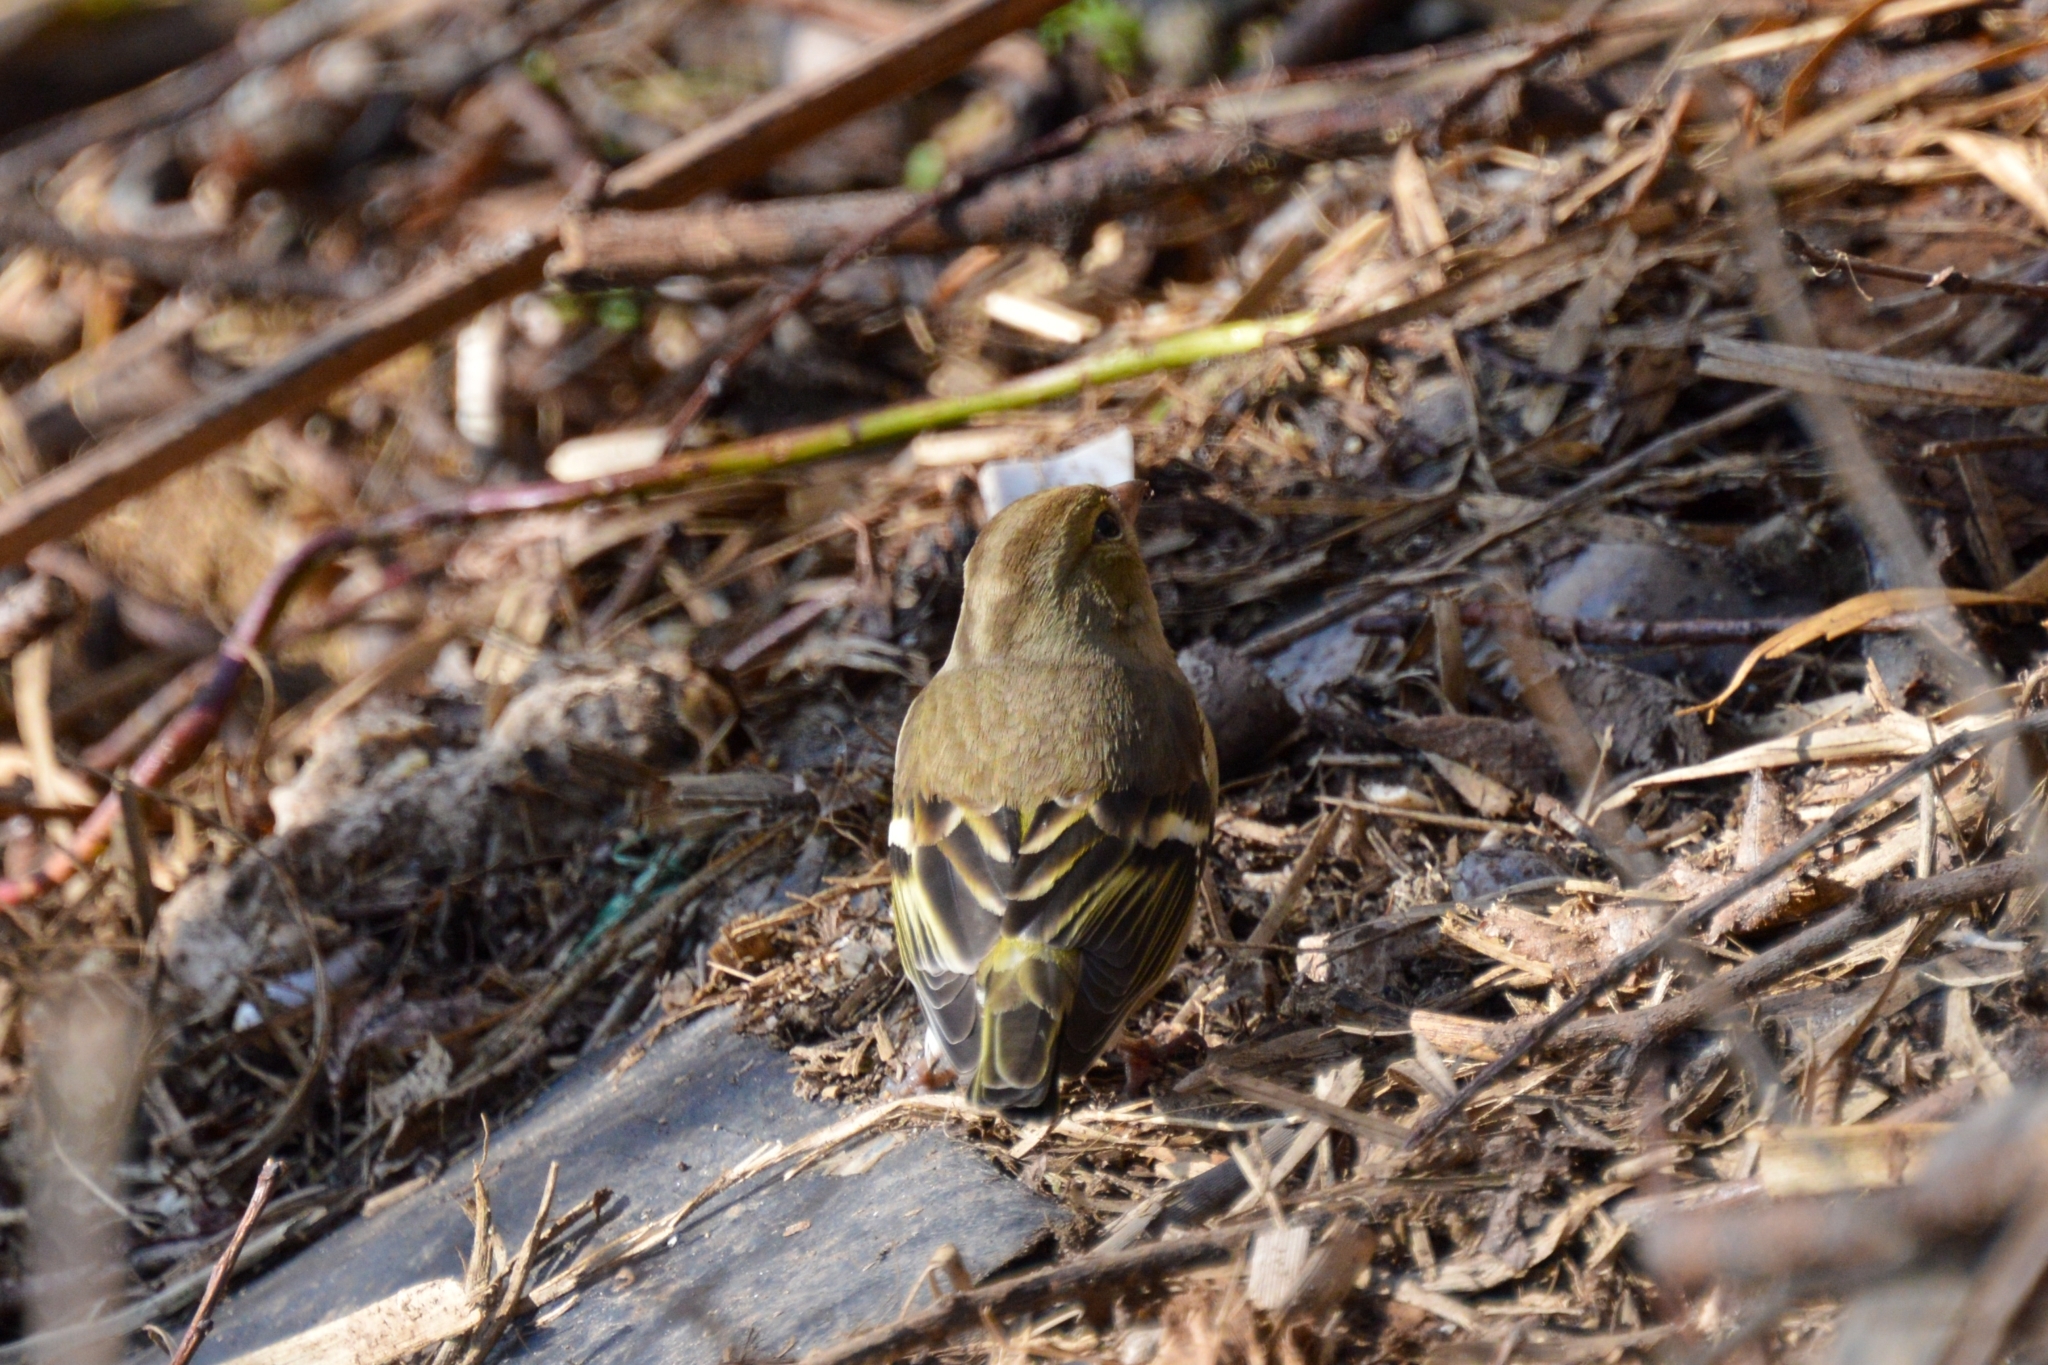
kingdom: Animalia
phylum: Chordata
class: Aves
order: Passeriformes
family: Fringillidae
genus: Fringilla
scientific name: Fringilla coelebs
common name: Common chaffinch
